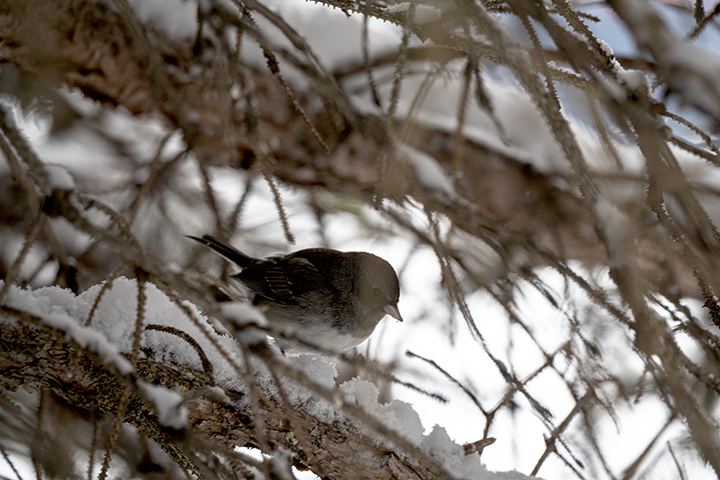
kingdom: Animalia
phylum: Chordata
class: Aves
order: Passeriformes
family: Passerellidae
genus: Junco
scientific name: Junco hyemalis
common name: Dark-eyed junco
